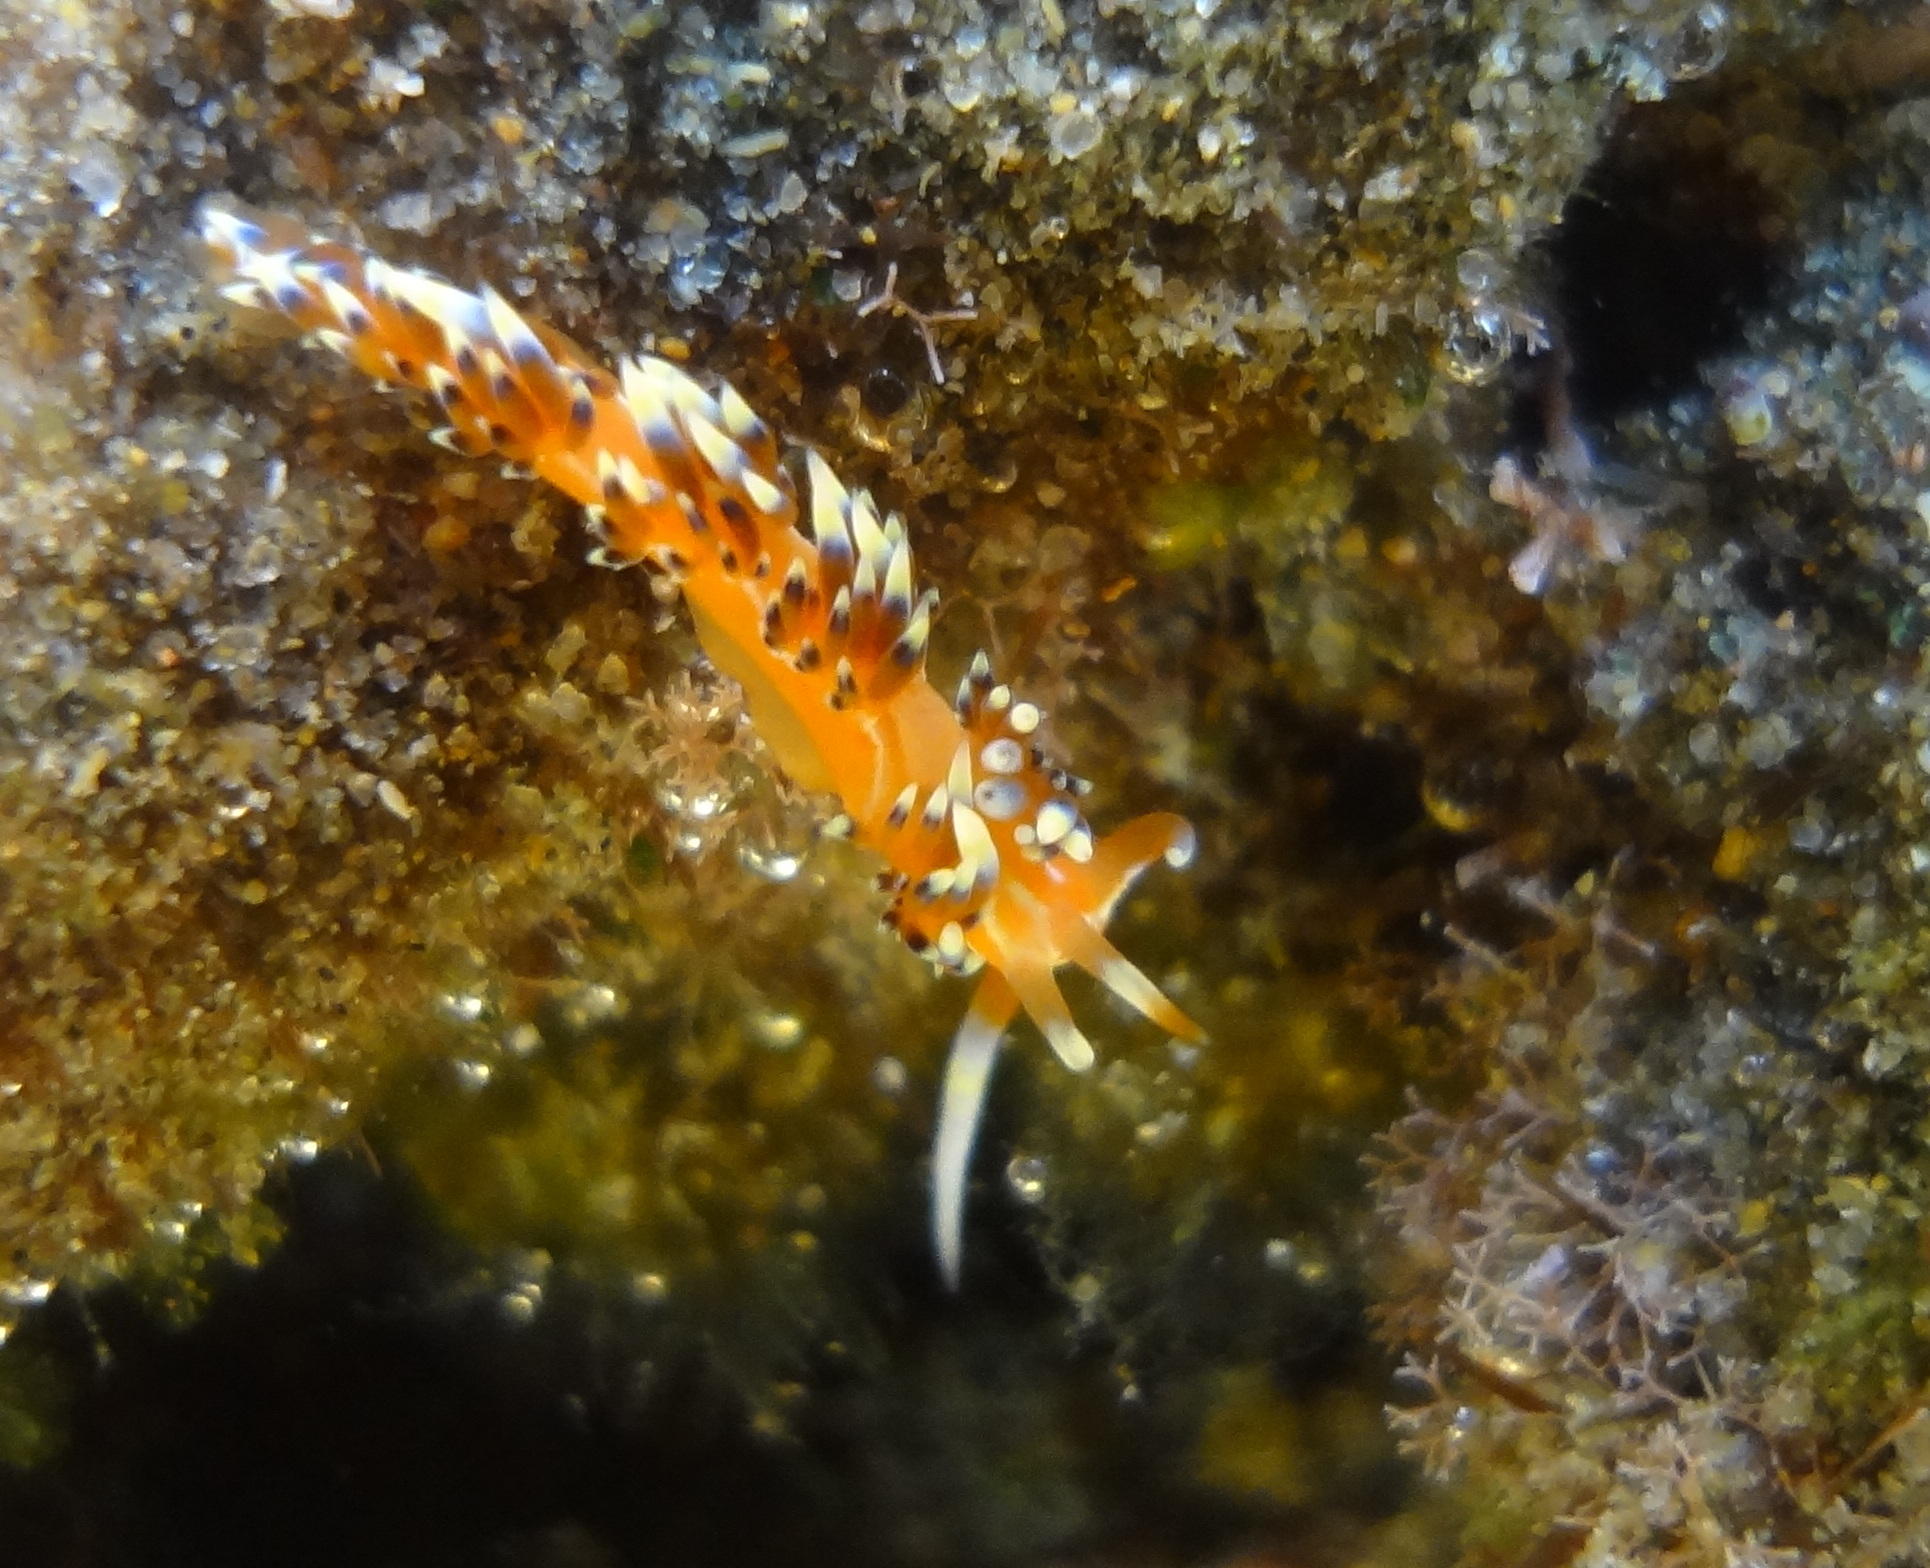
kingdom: Animalia
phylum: Mollusca
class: Gastropoda
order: Nudibranchia
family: Facelinidae
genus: Caloria
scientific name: Caloria indica
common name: Sea slug
